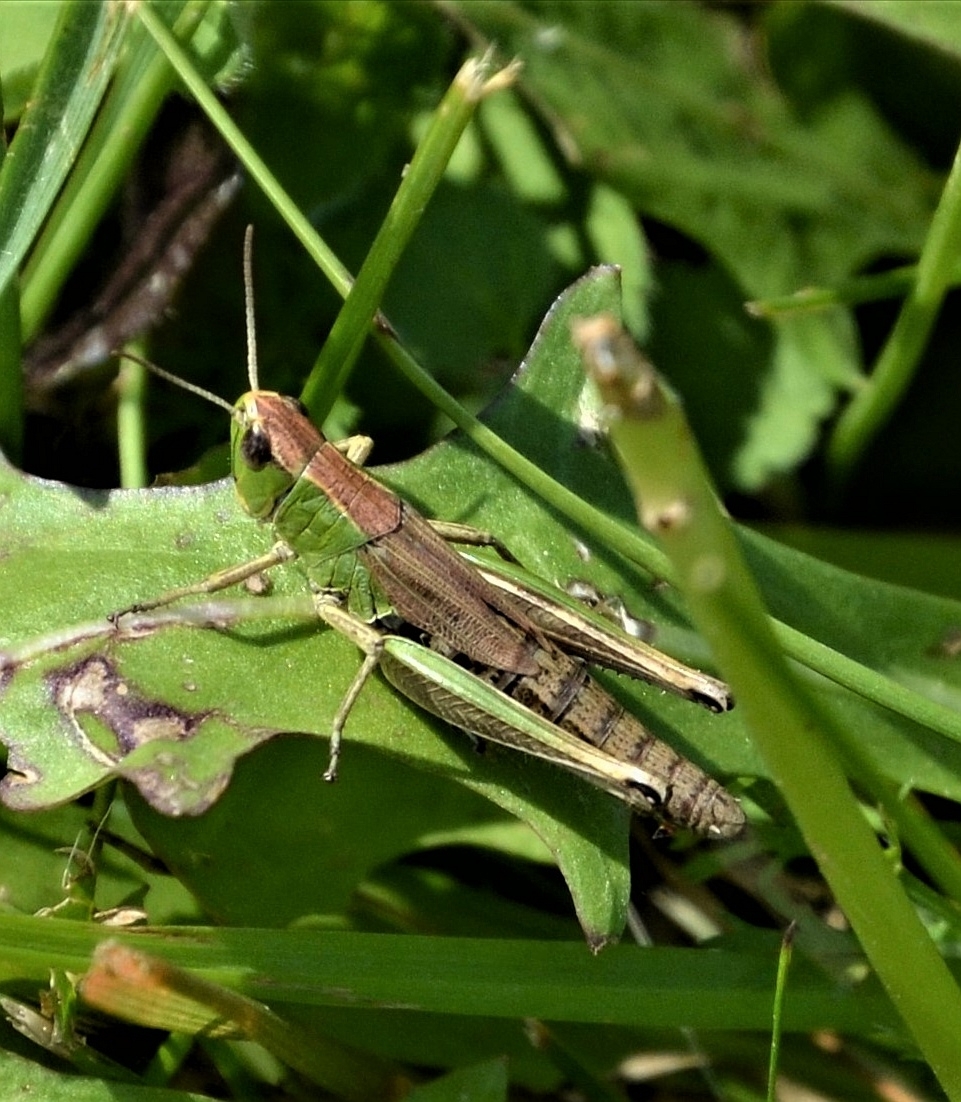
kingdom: Animalia
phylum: Arthropoda
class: Insecta
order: Orthoptera
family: Acrididae
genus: Pseudochorthippus
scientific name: Pseudochorthippus parallelus
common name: Meadow grasshopper
